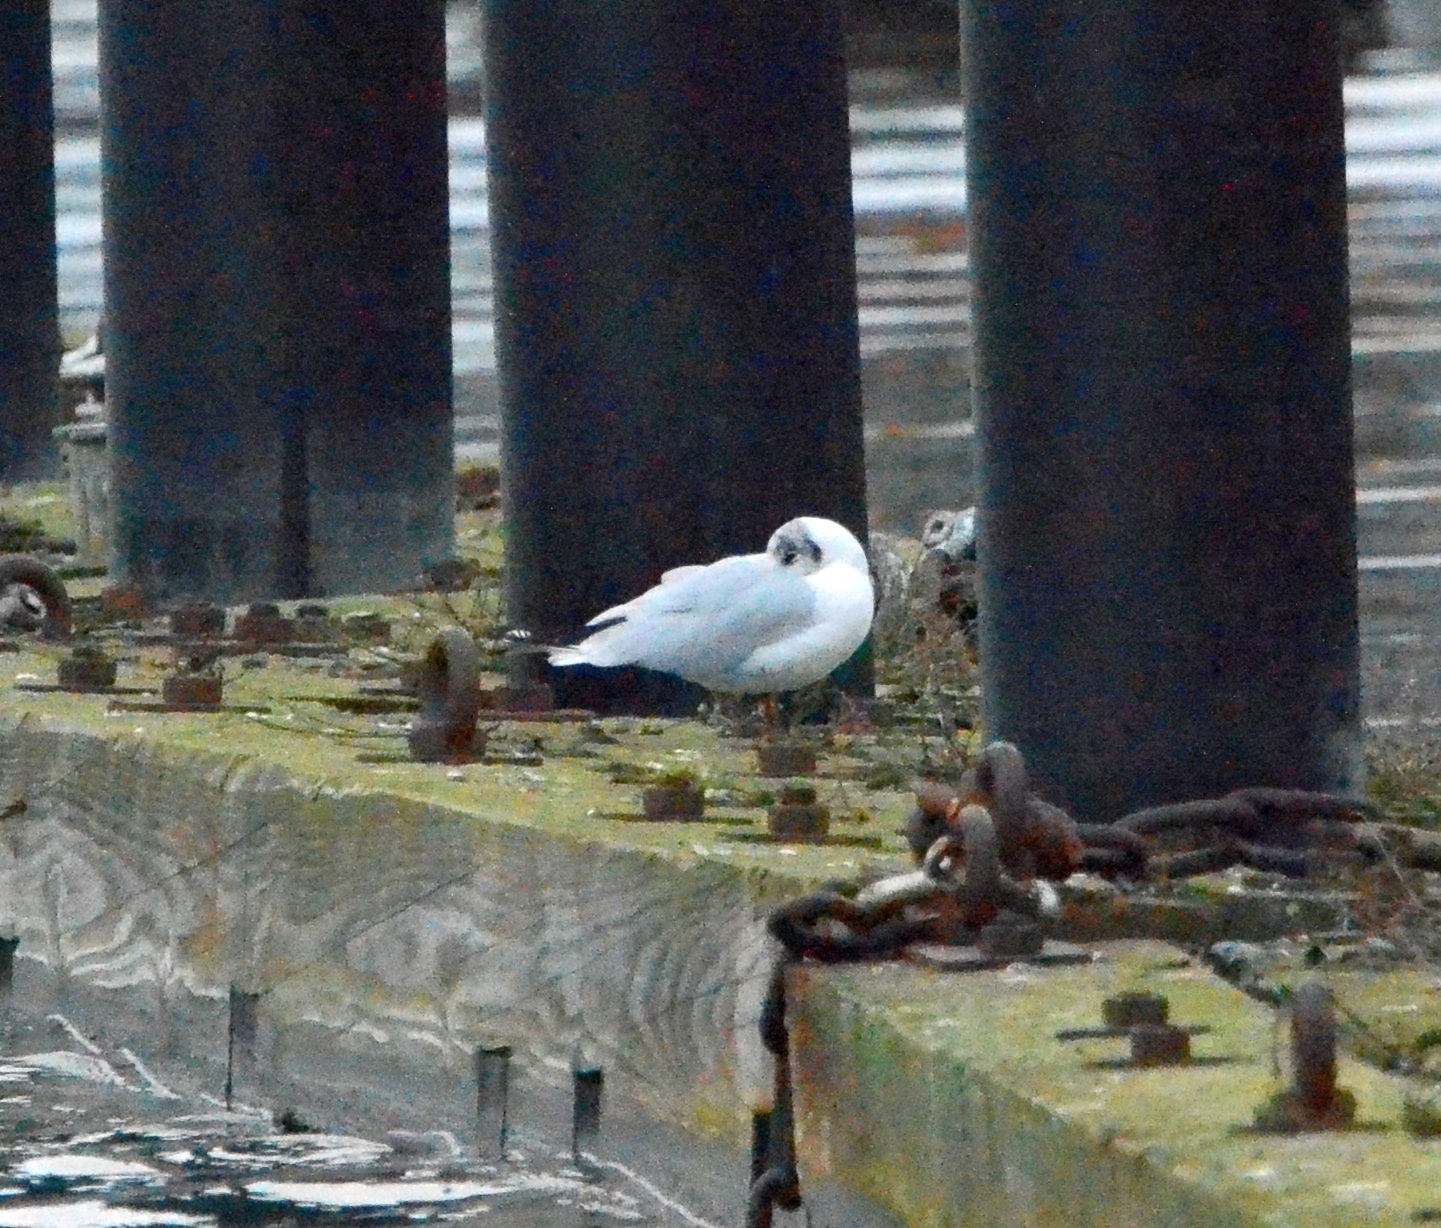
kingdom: Animalia
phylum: Chordata
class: Aves
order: Charadriiformes
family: Laridae
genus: Chroicocephalus
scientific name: Chroicocephalus ridibundus
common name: Black-headed gull
